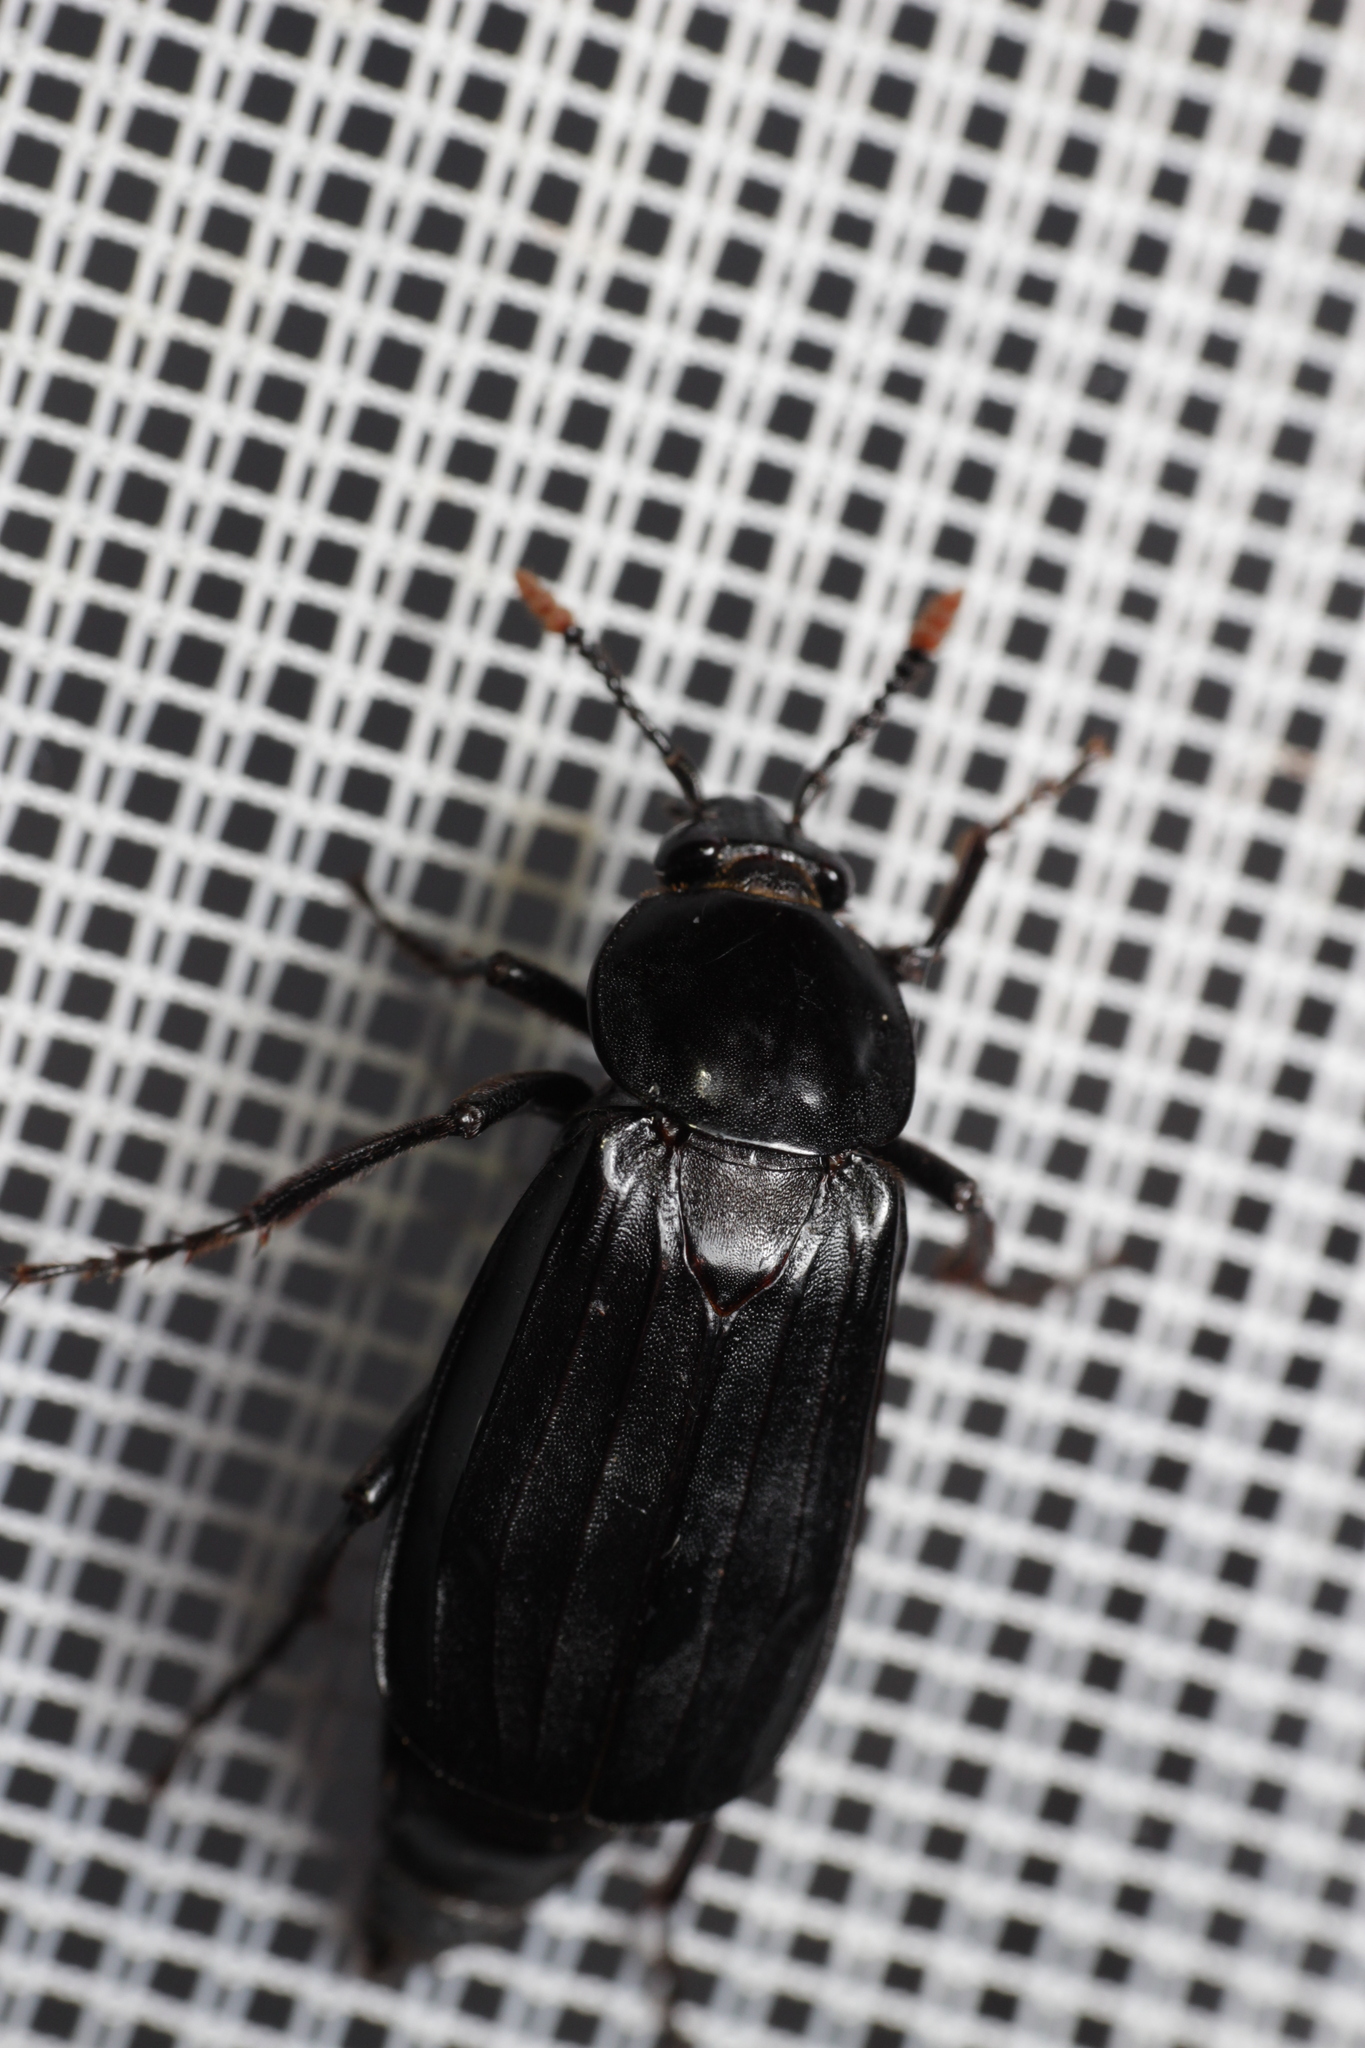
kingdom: Animalia
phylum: Arthropoda
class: Insecta
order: Coleoptera
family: Staphylinidae
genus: Necrodes
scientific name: Necrodes littoralis
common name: Shore sexton beetle
